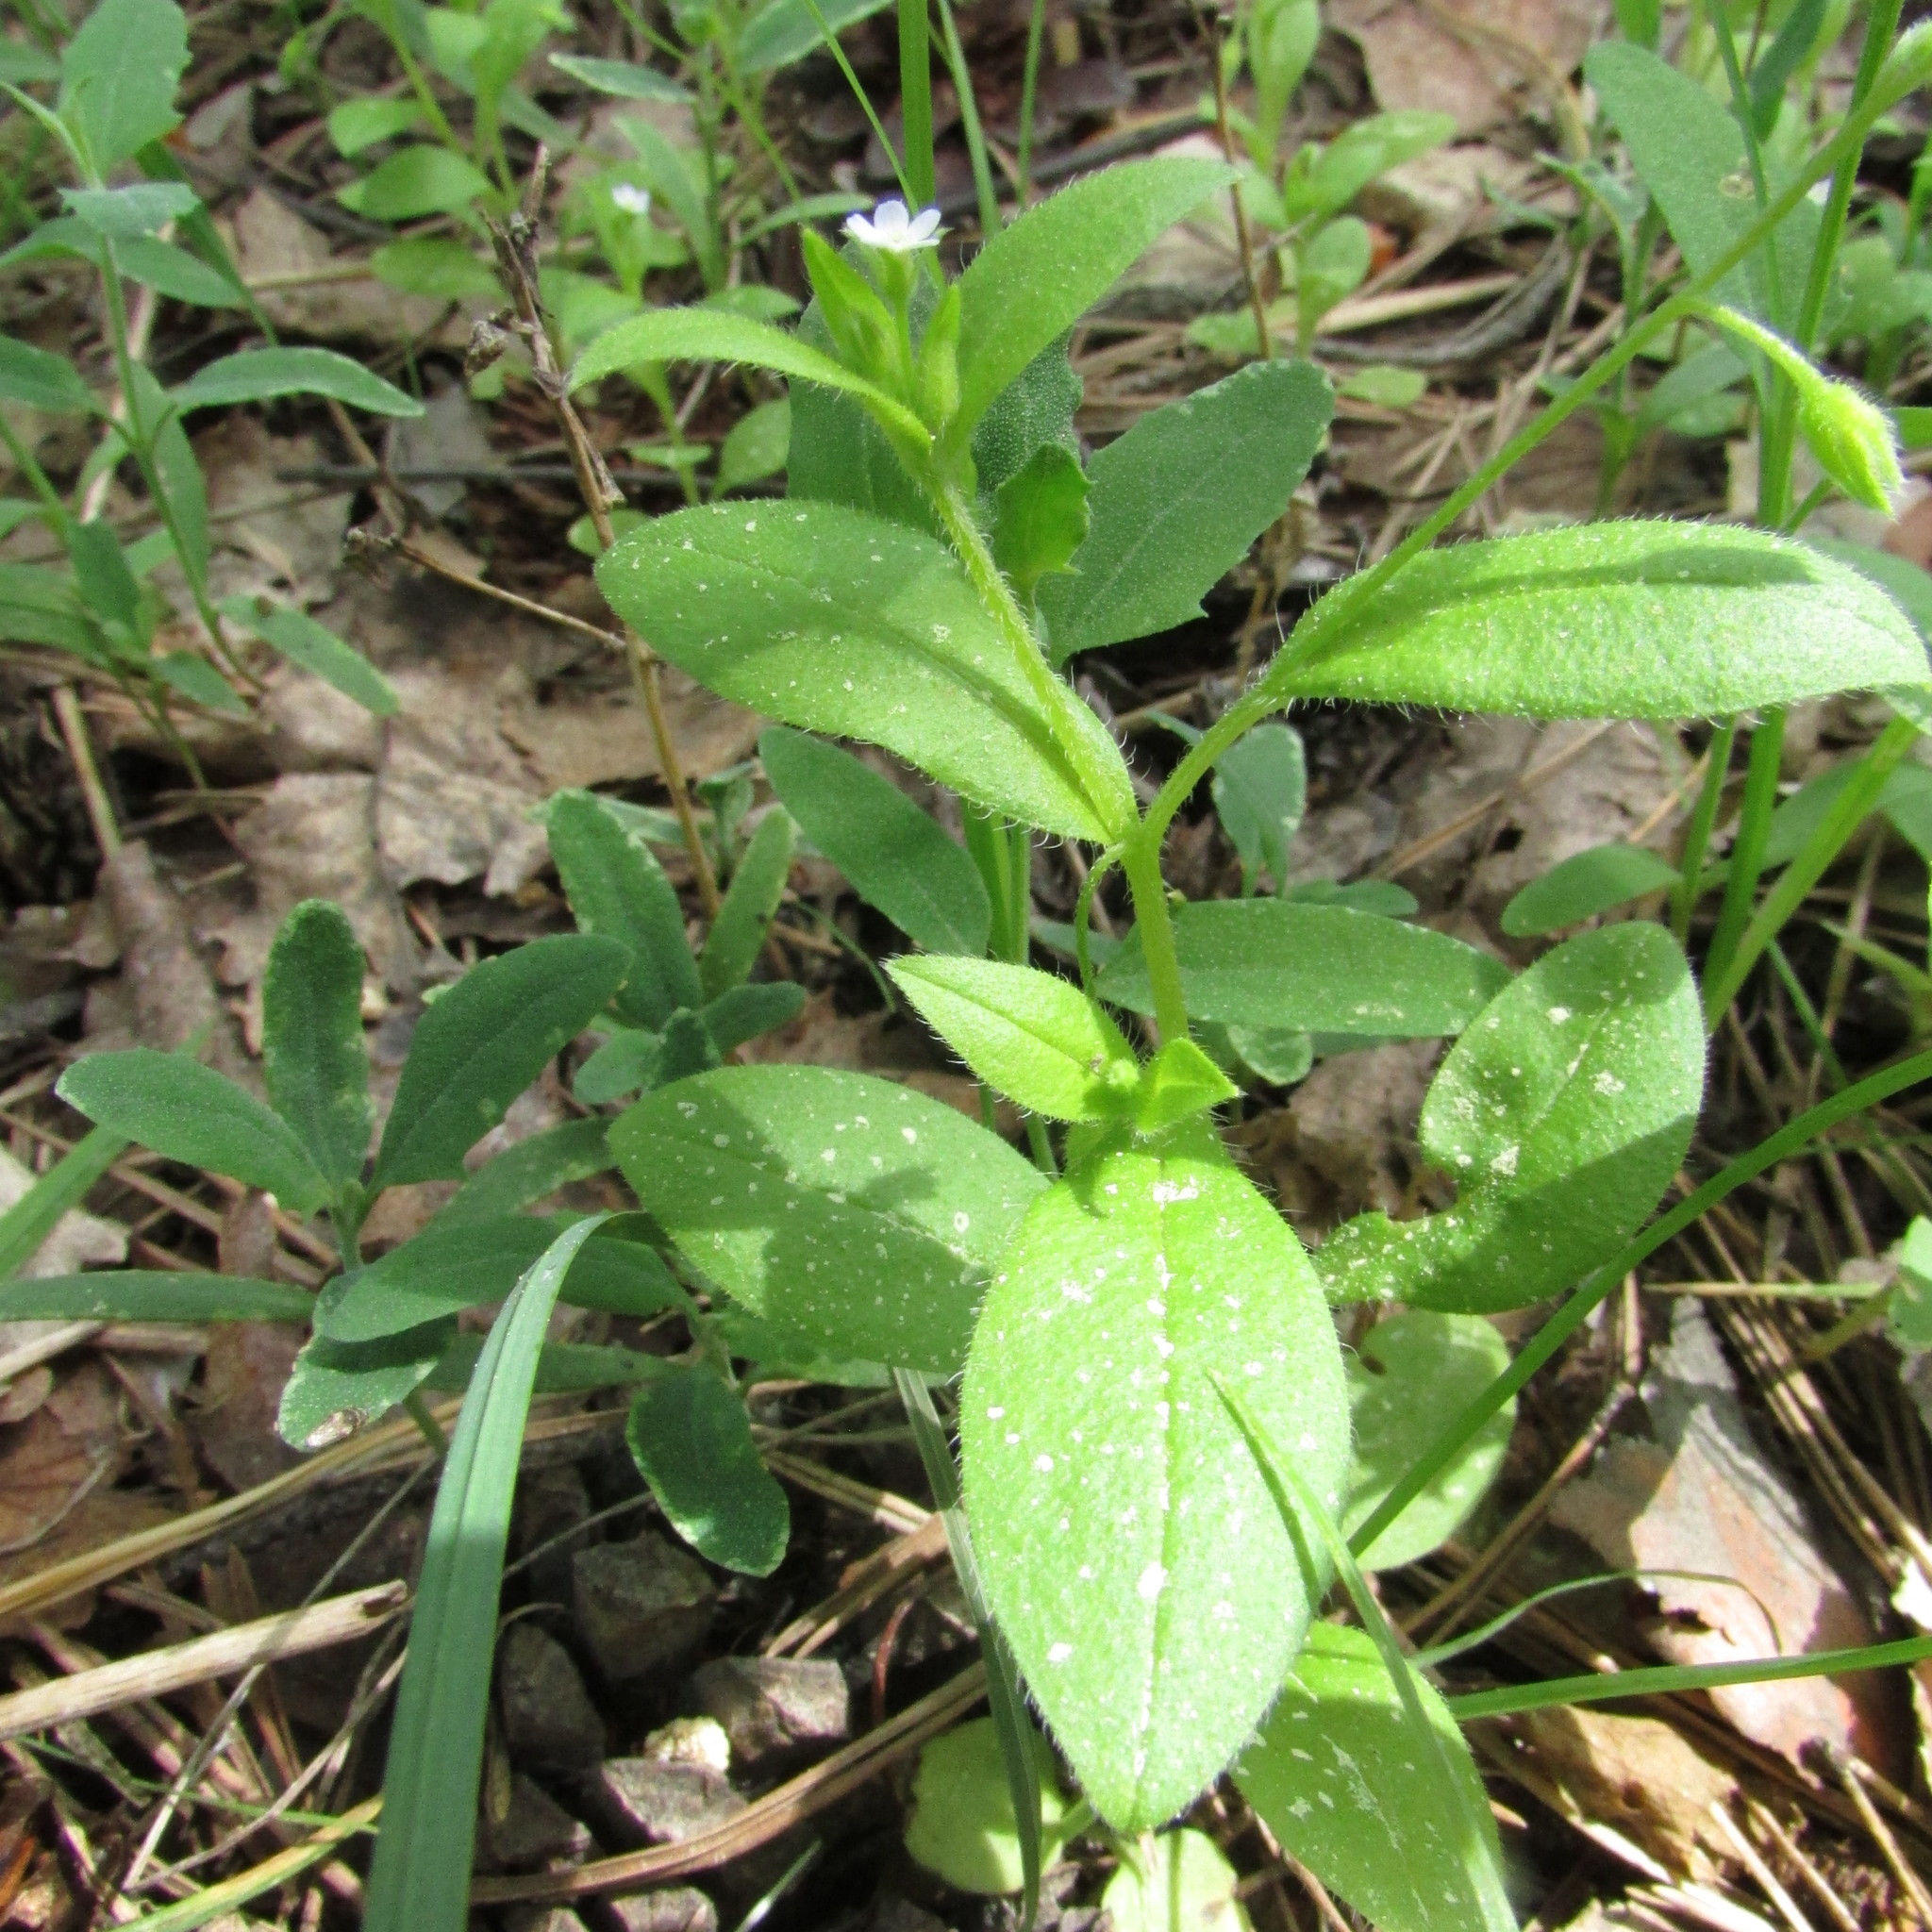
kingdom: Plantae
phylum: Tracheophyta
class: Magnoliopsida
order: Boraginales
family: Boraginaceae
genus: Myosotis
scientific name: Myosotis sparsiflora
